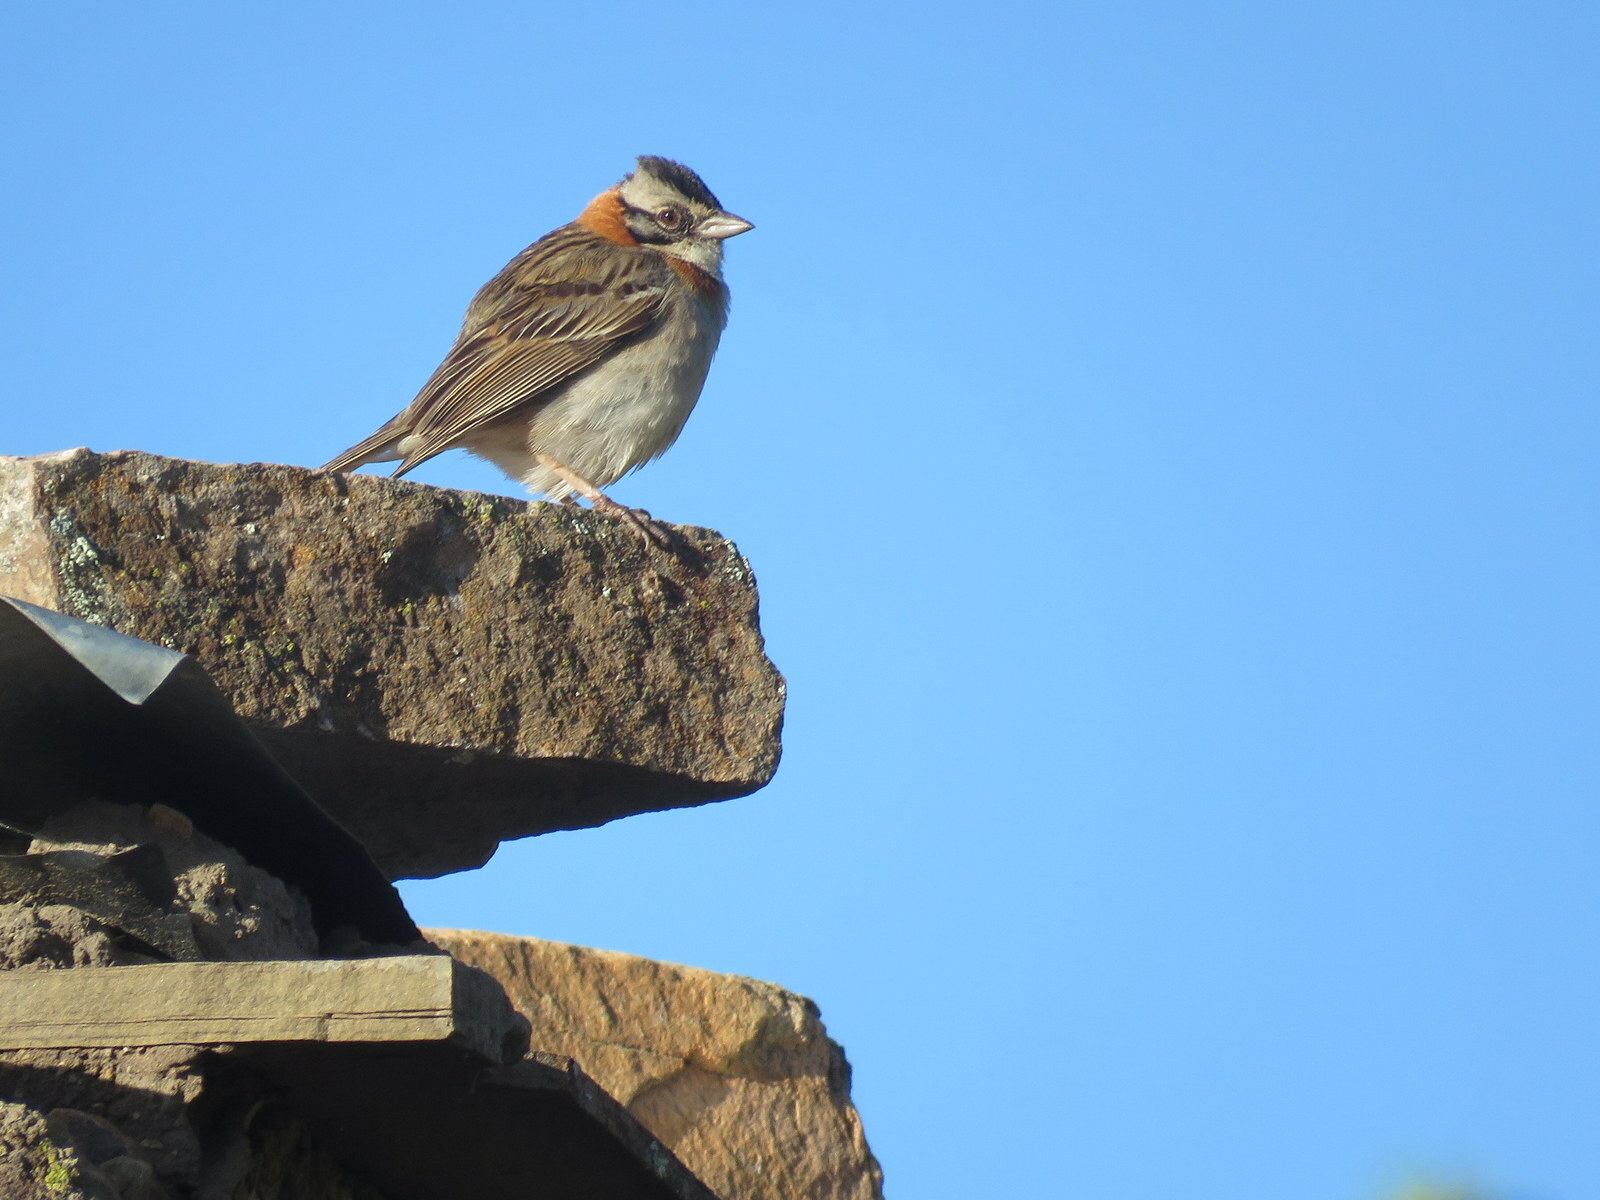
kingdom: Animalia
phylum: Chordata
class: Aves
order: Passeriformes
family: Passerellidae
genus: Zonotrichia
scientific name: Zonotrichia capensis
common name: Rufous-collared sparrow
